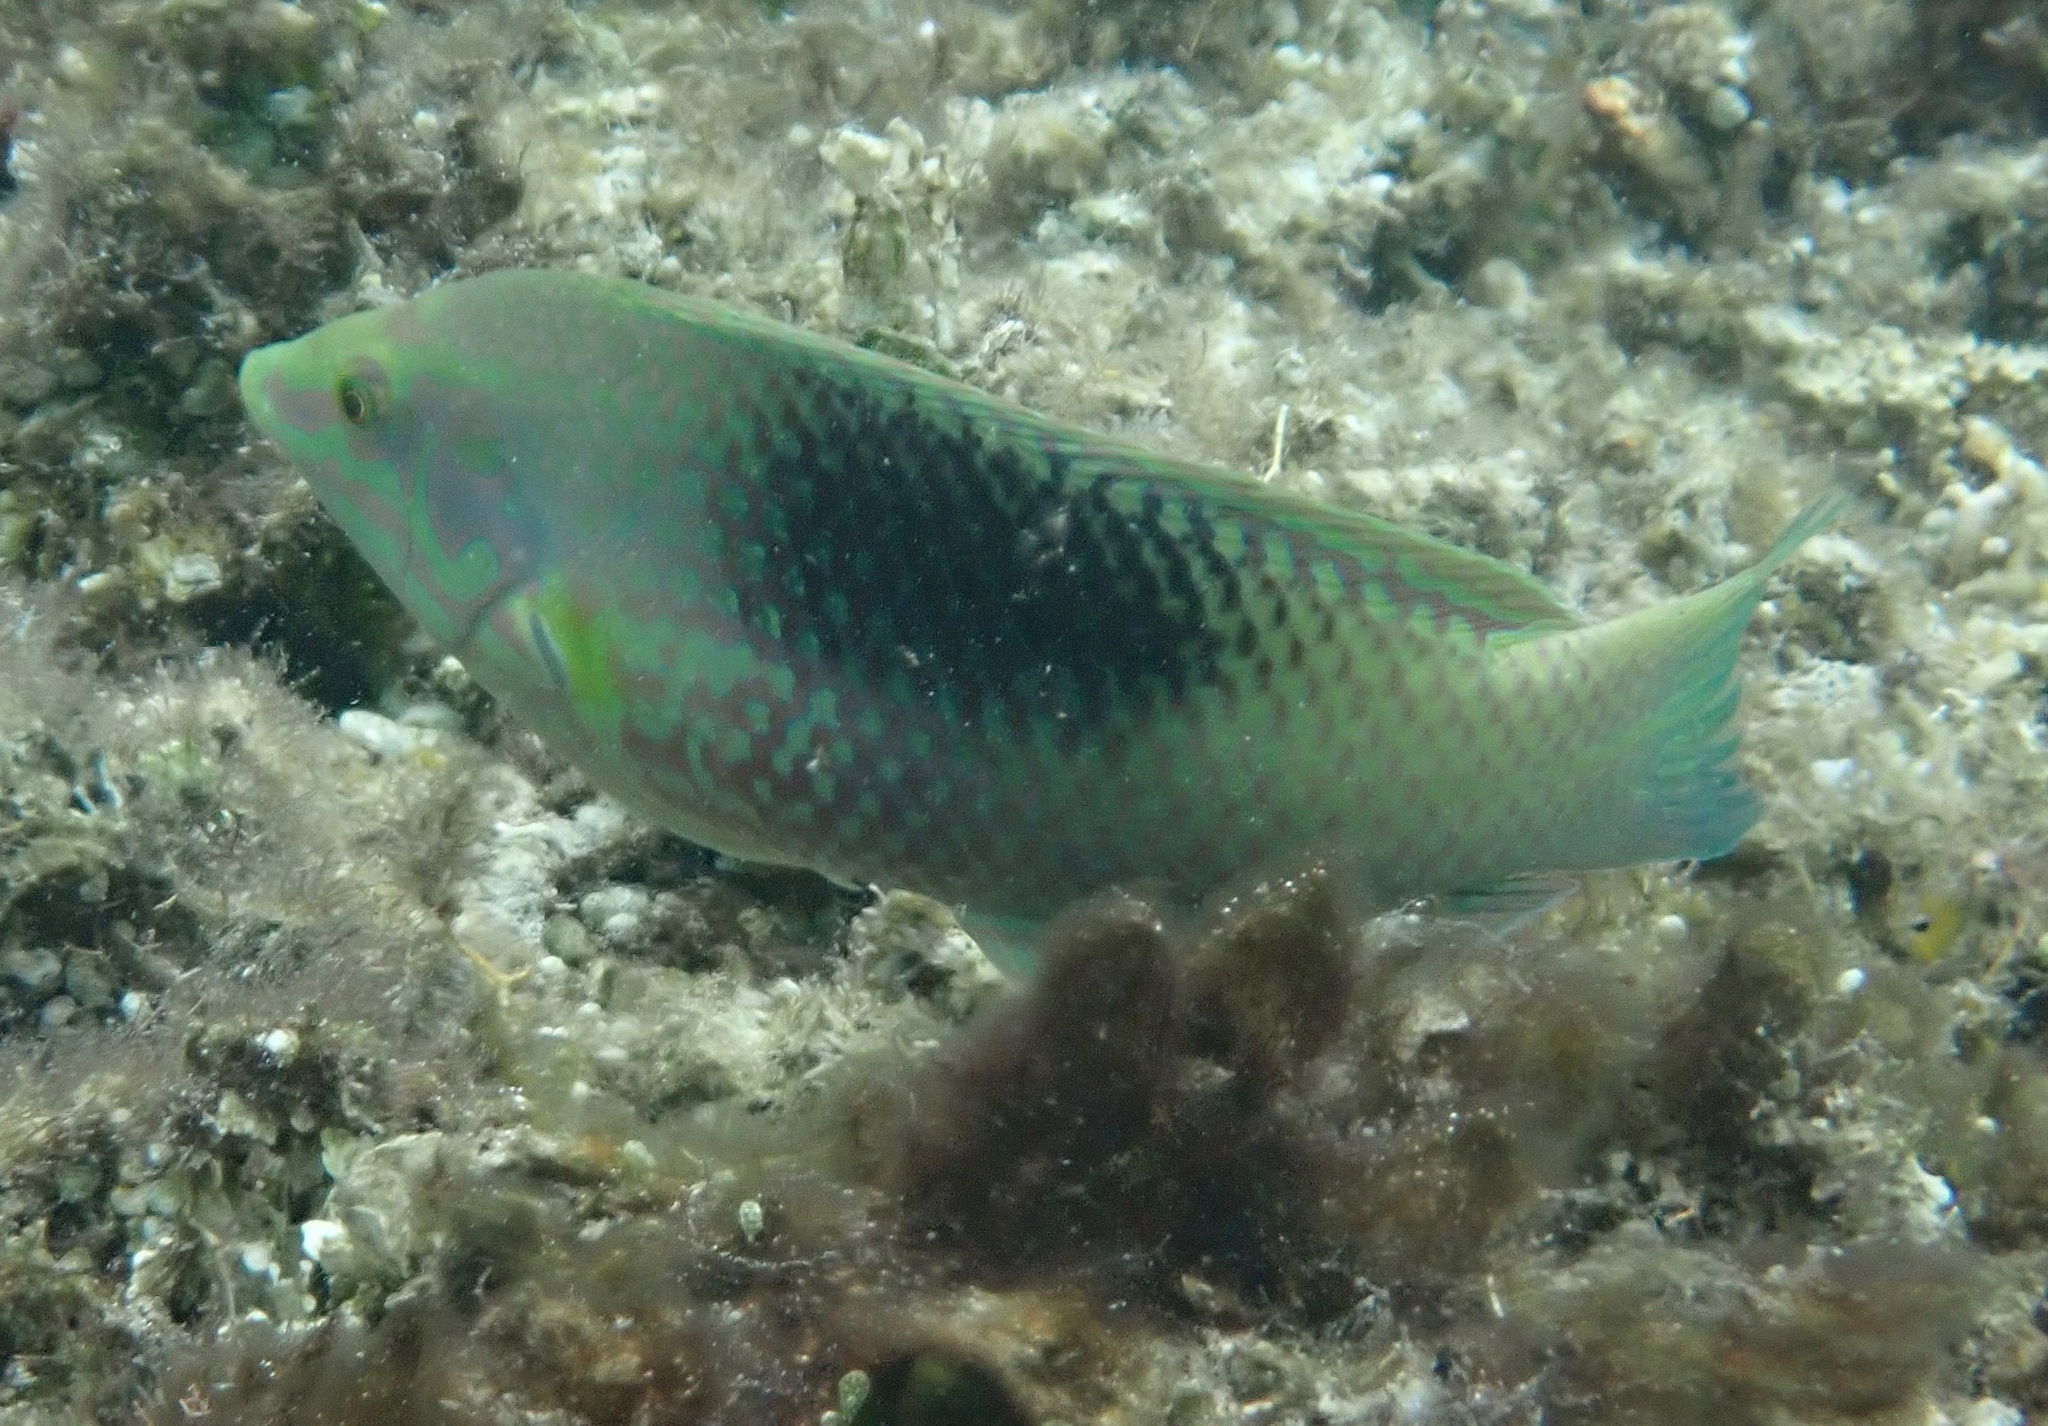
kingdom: Animalia
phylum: Chordata
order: Perciformes
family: Labridae
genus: Halichoeres
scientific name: Halichoeres chloropterus
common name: Pastel-green wrasse
